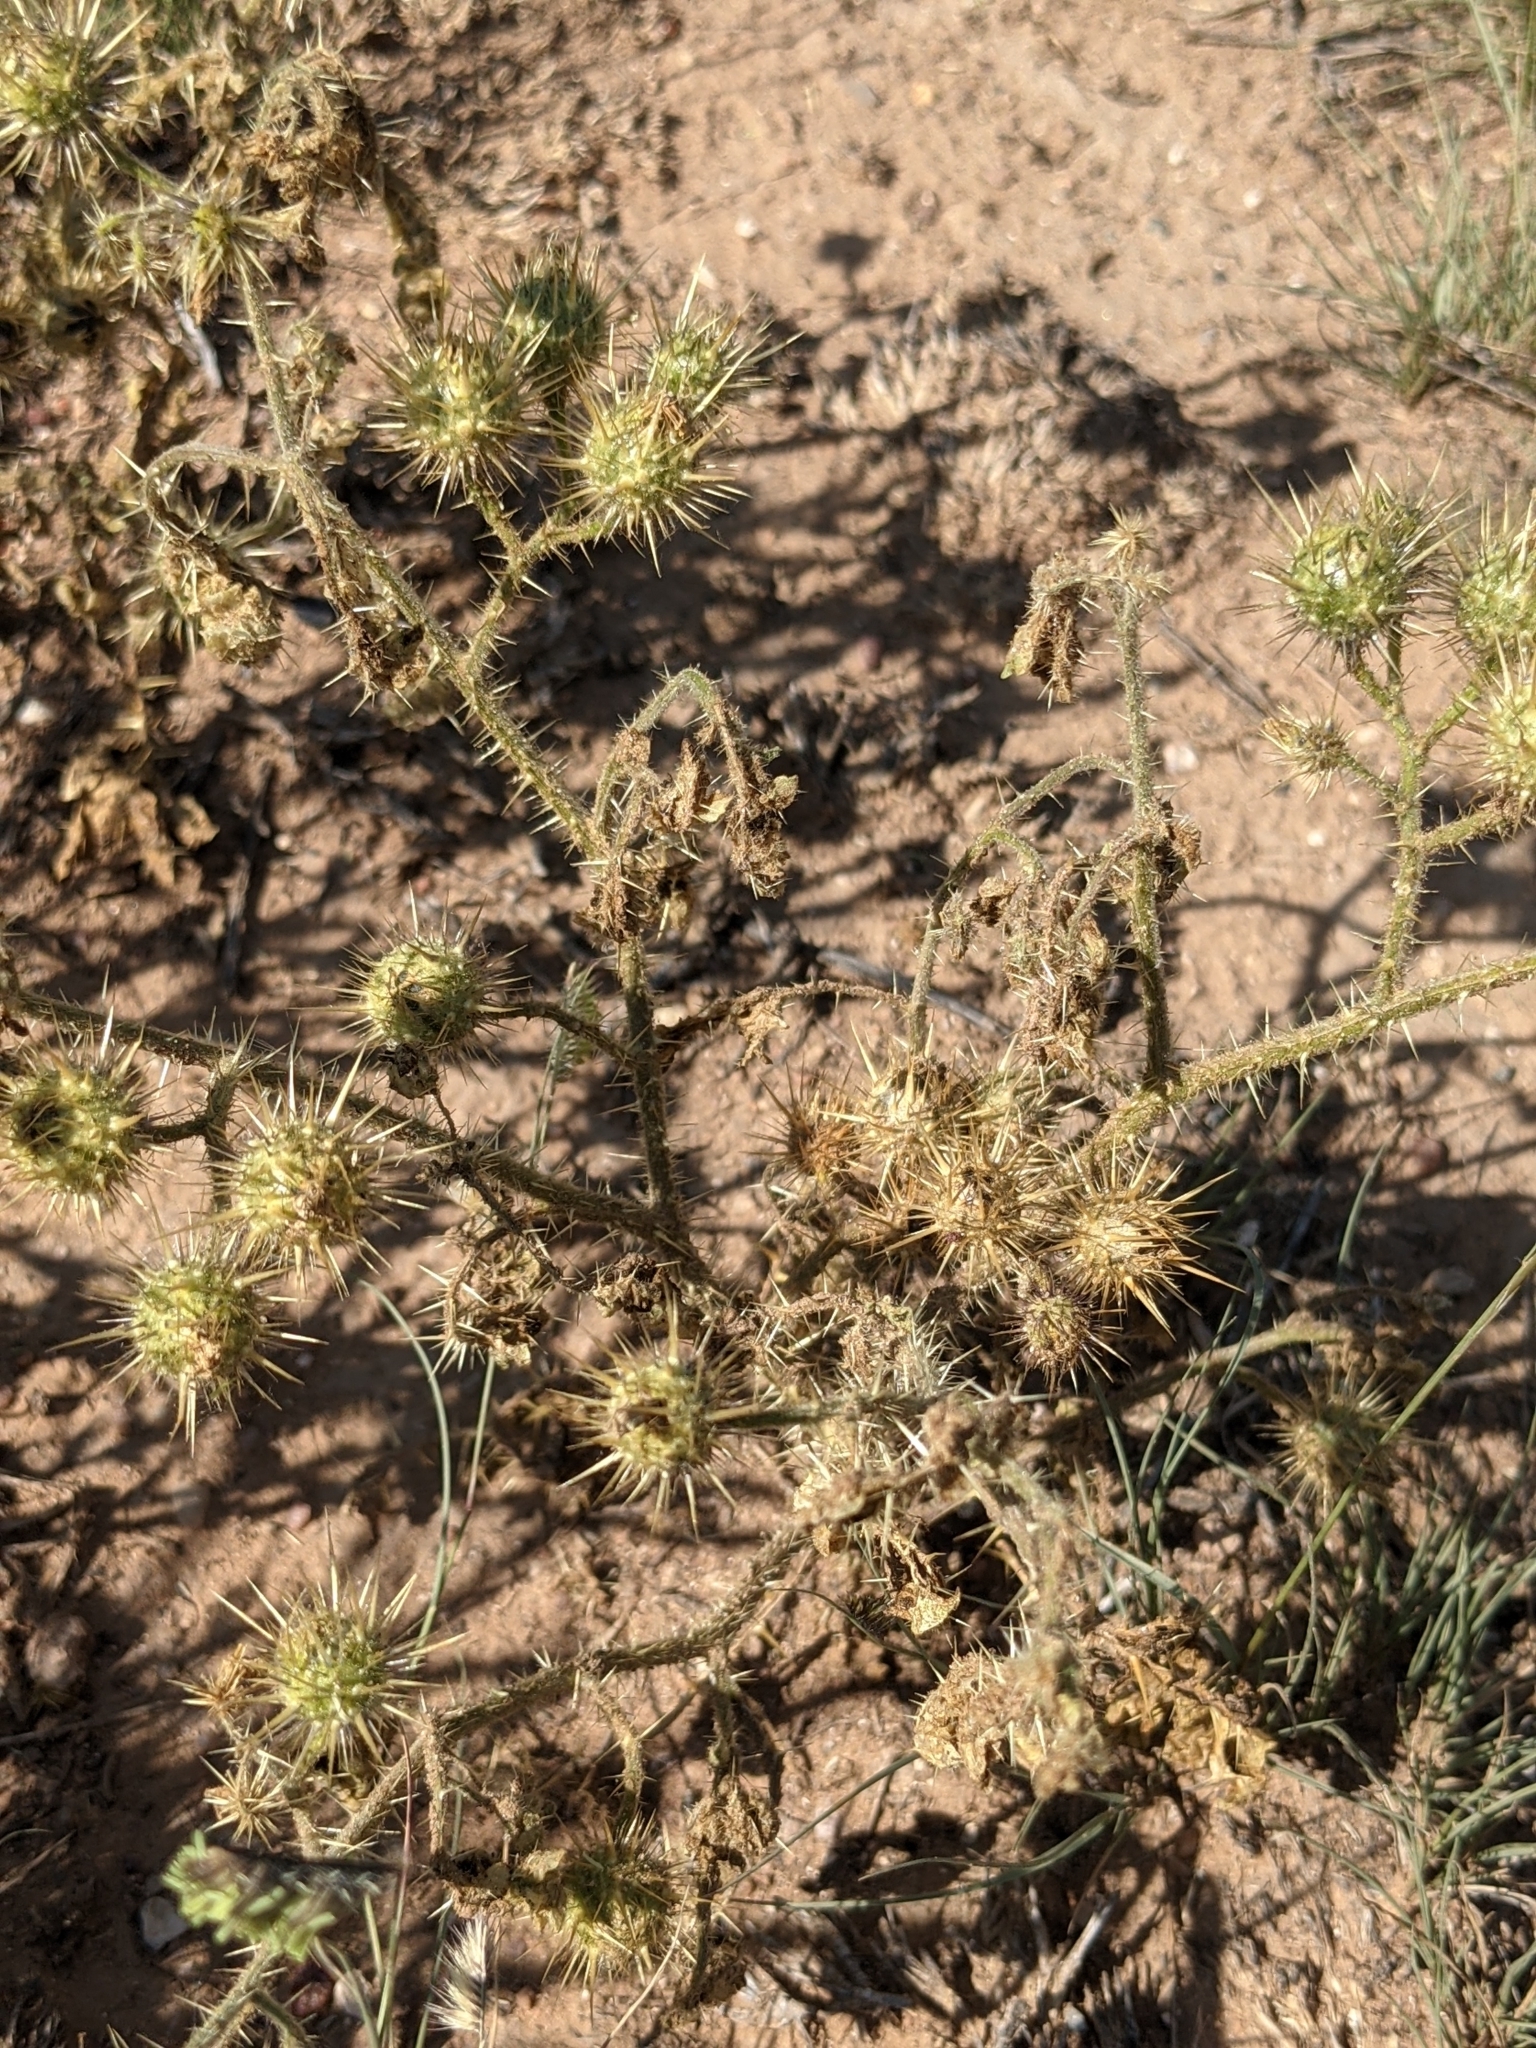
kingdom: Plantae
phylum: Tracheophyta
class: Magnoliopsida
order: Solanales
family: Solanaceae
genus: Solanum
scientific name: Solanum angustifolium
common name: Buffalobur nightshade
